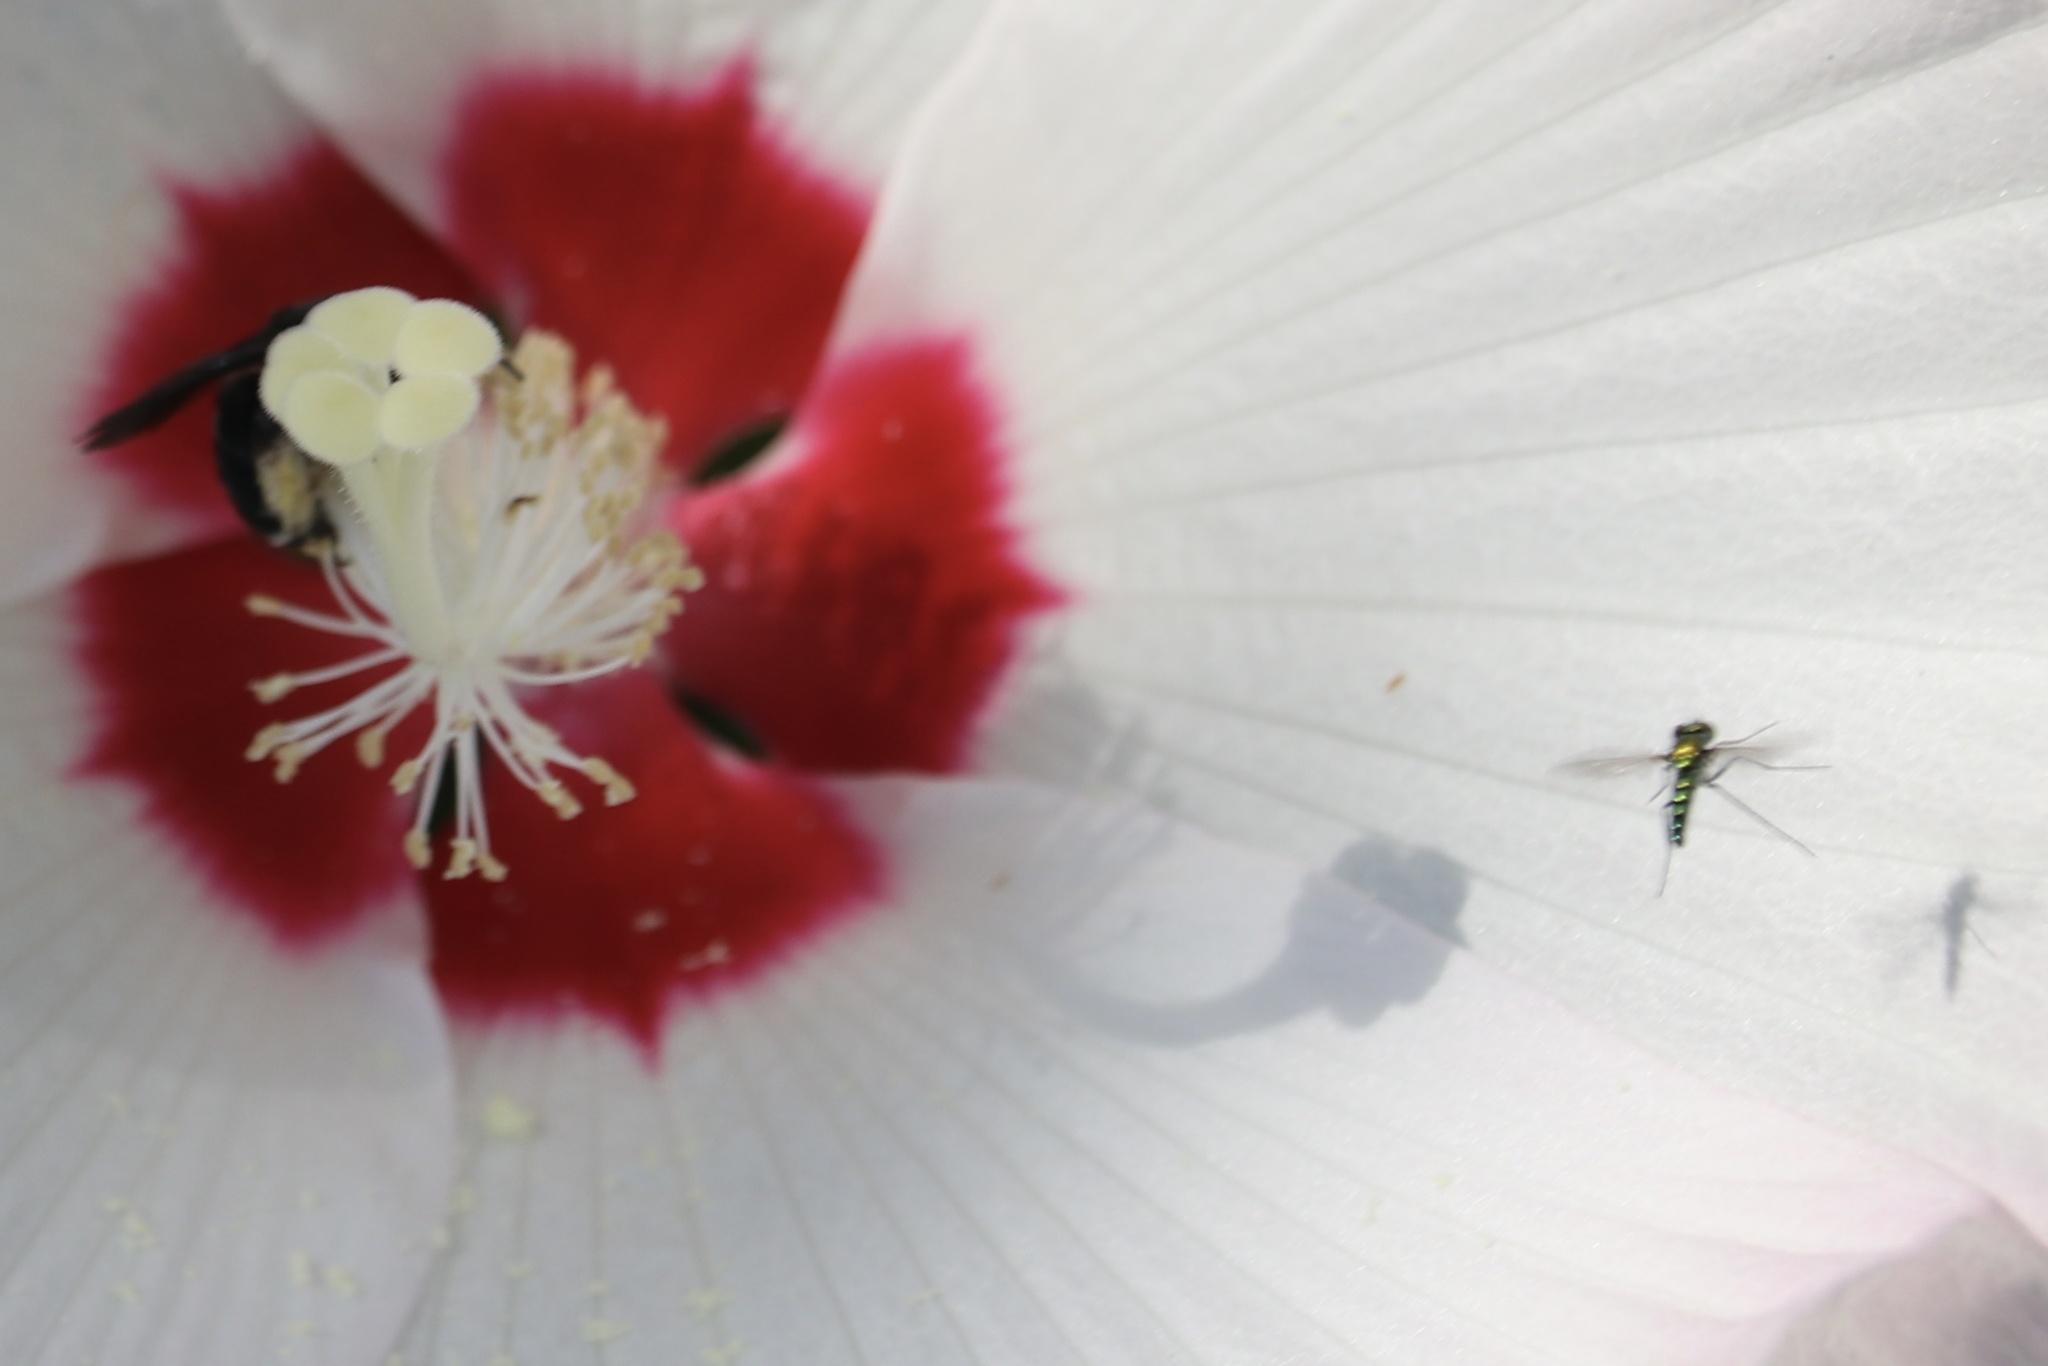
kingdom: Animalia
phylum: Arthropoda
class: Insecta
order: Diptera
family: Dolichopodidae
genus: Condylostylus
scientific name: Condylostylus longicornis
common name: Long-legged fly
